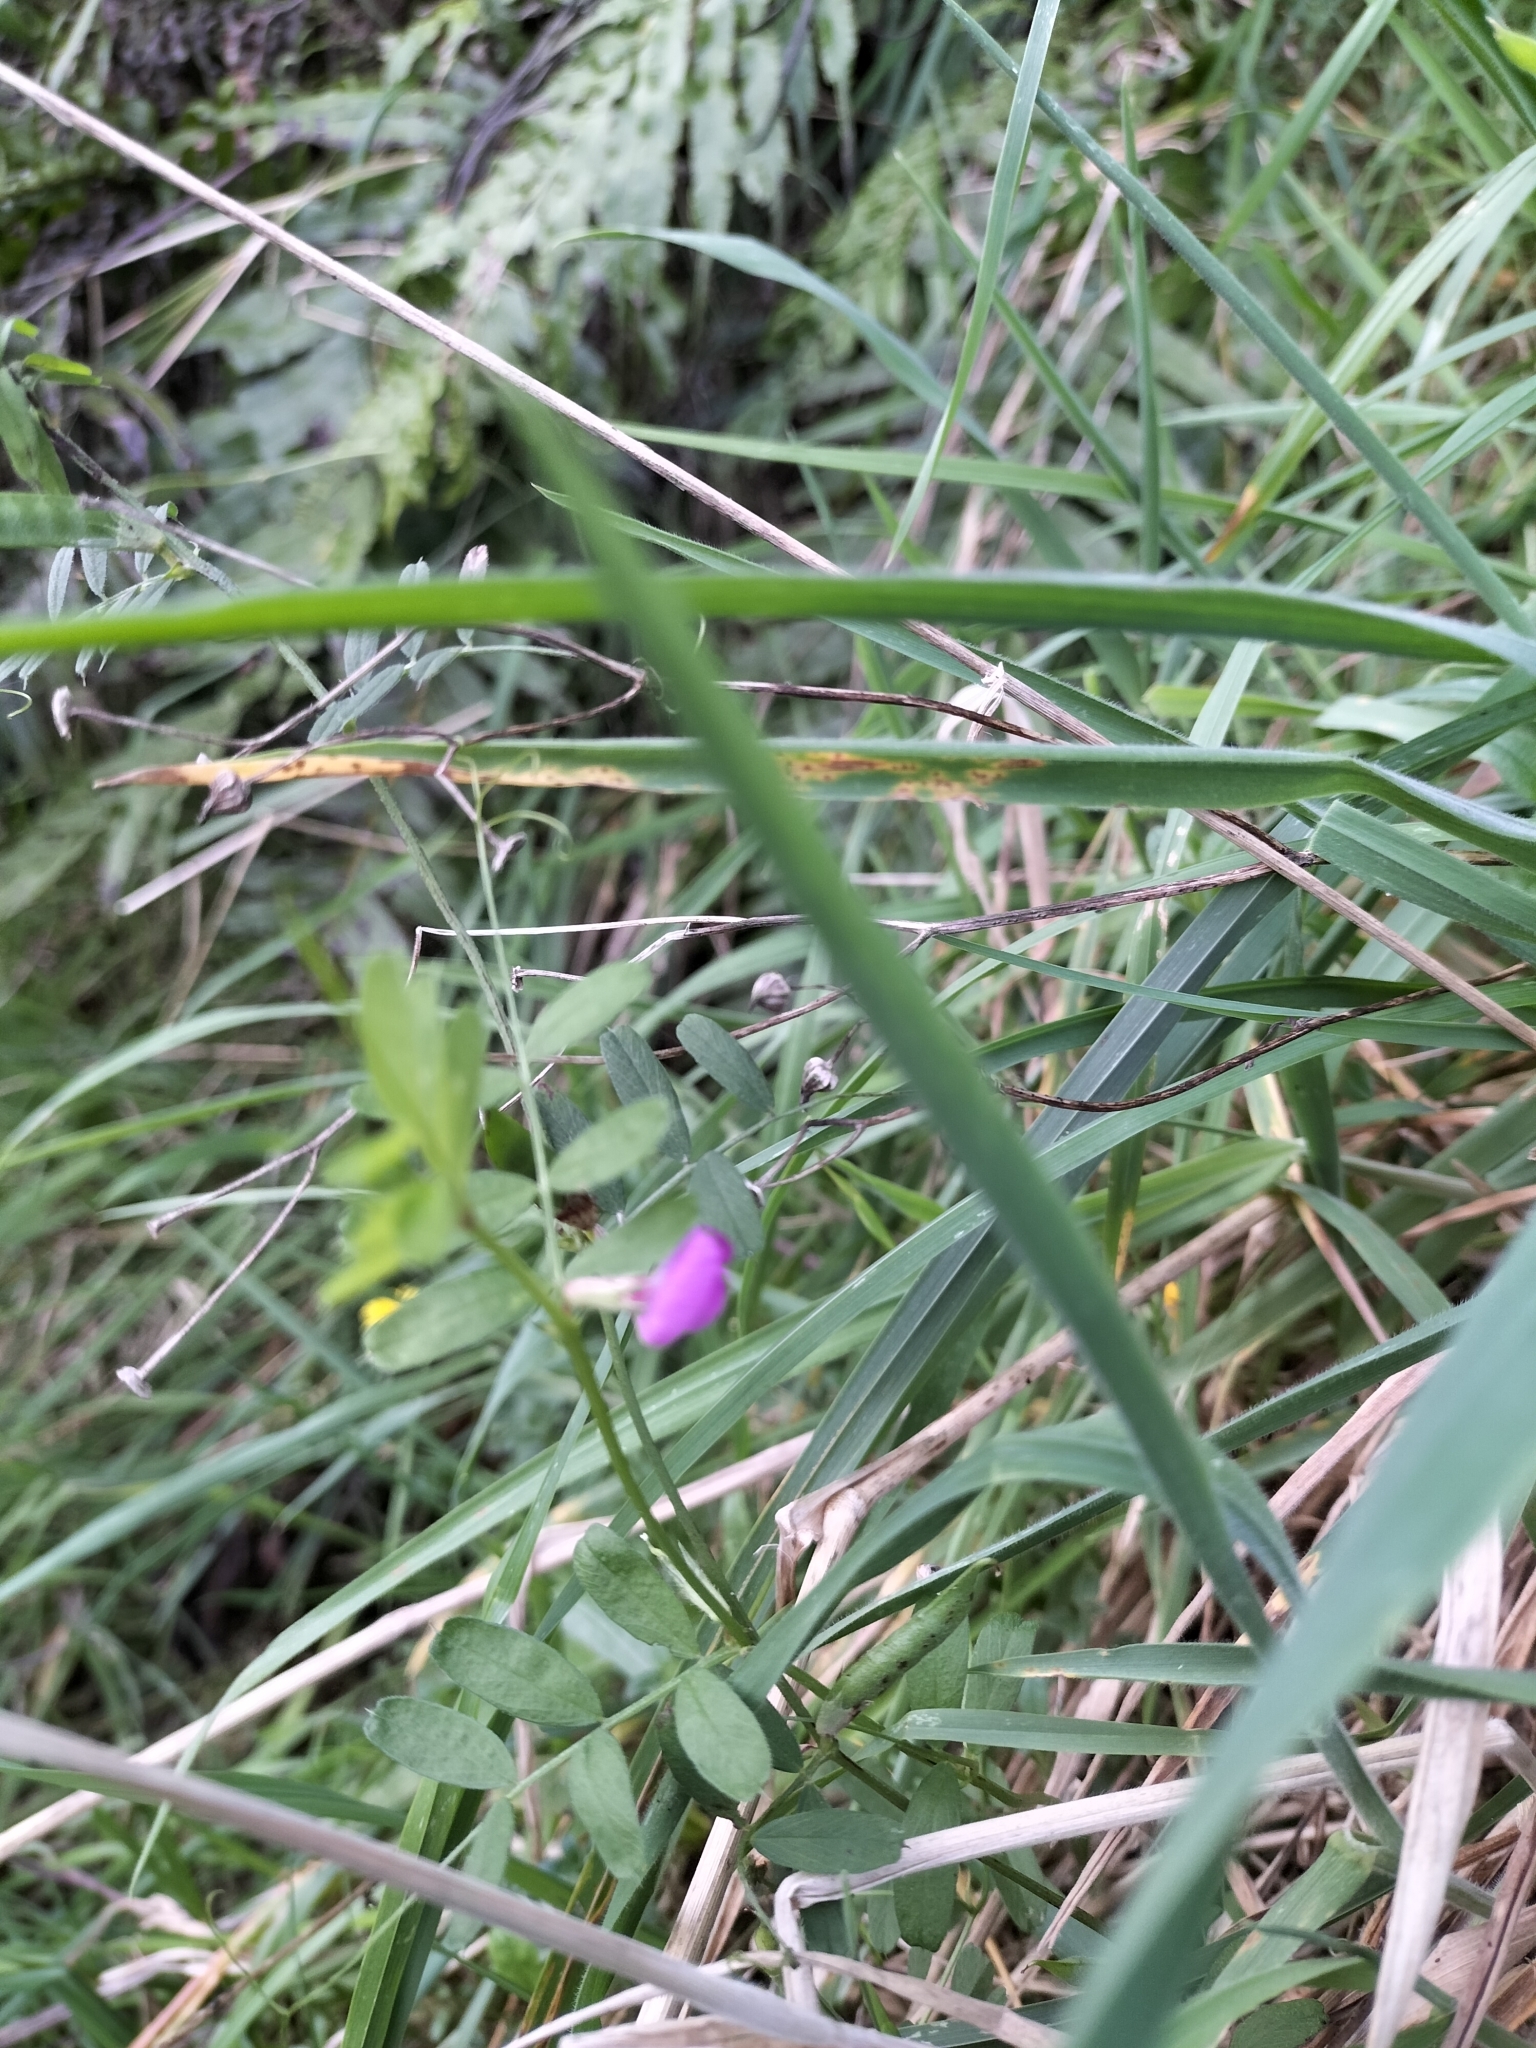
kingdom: Plantae
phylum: Tracheophyta
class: Magnoliopsida
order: Fabales
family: Fabaceae
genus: Vicia
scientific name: Vicia sativa
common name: Garden vetch
